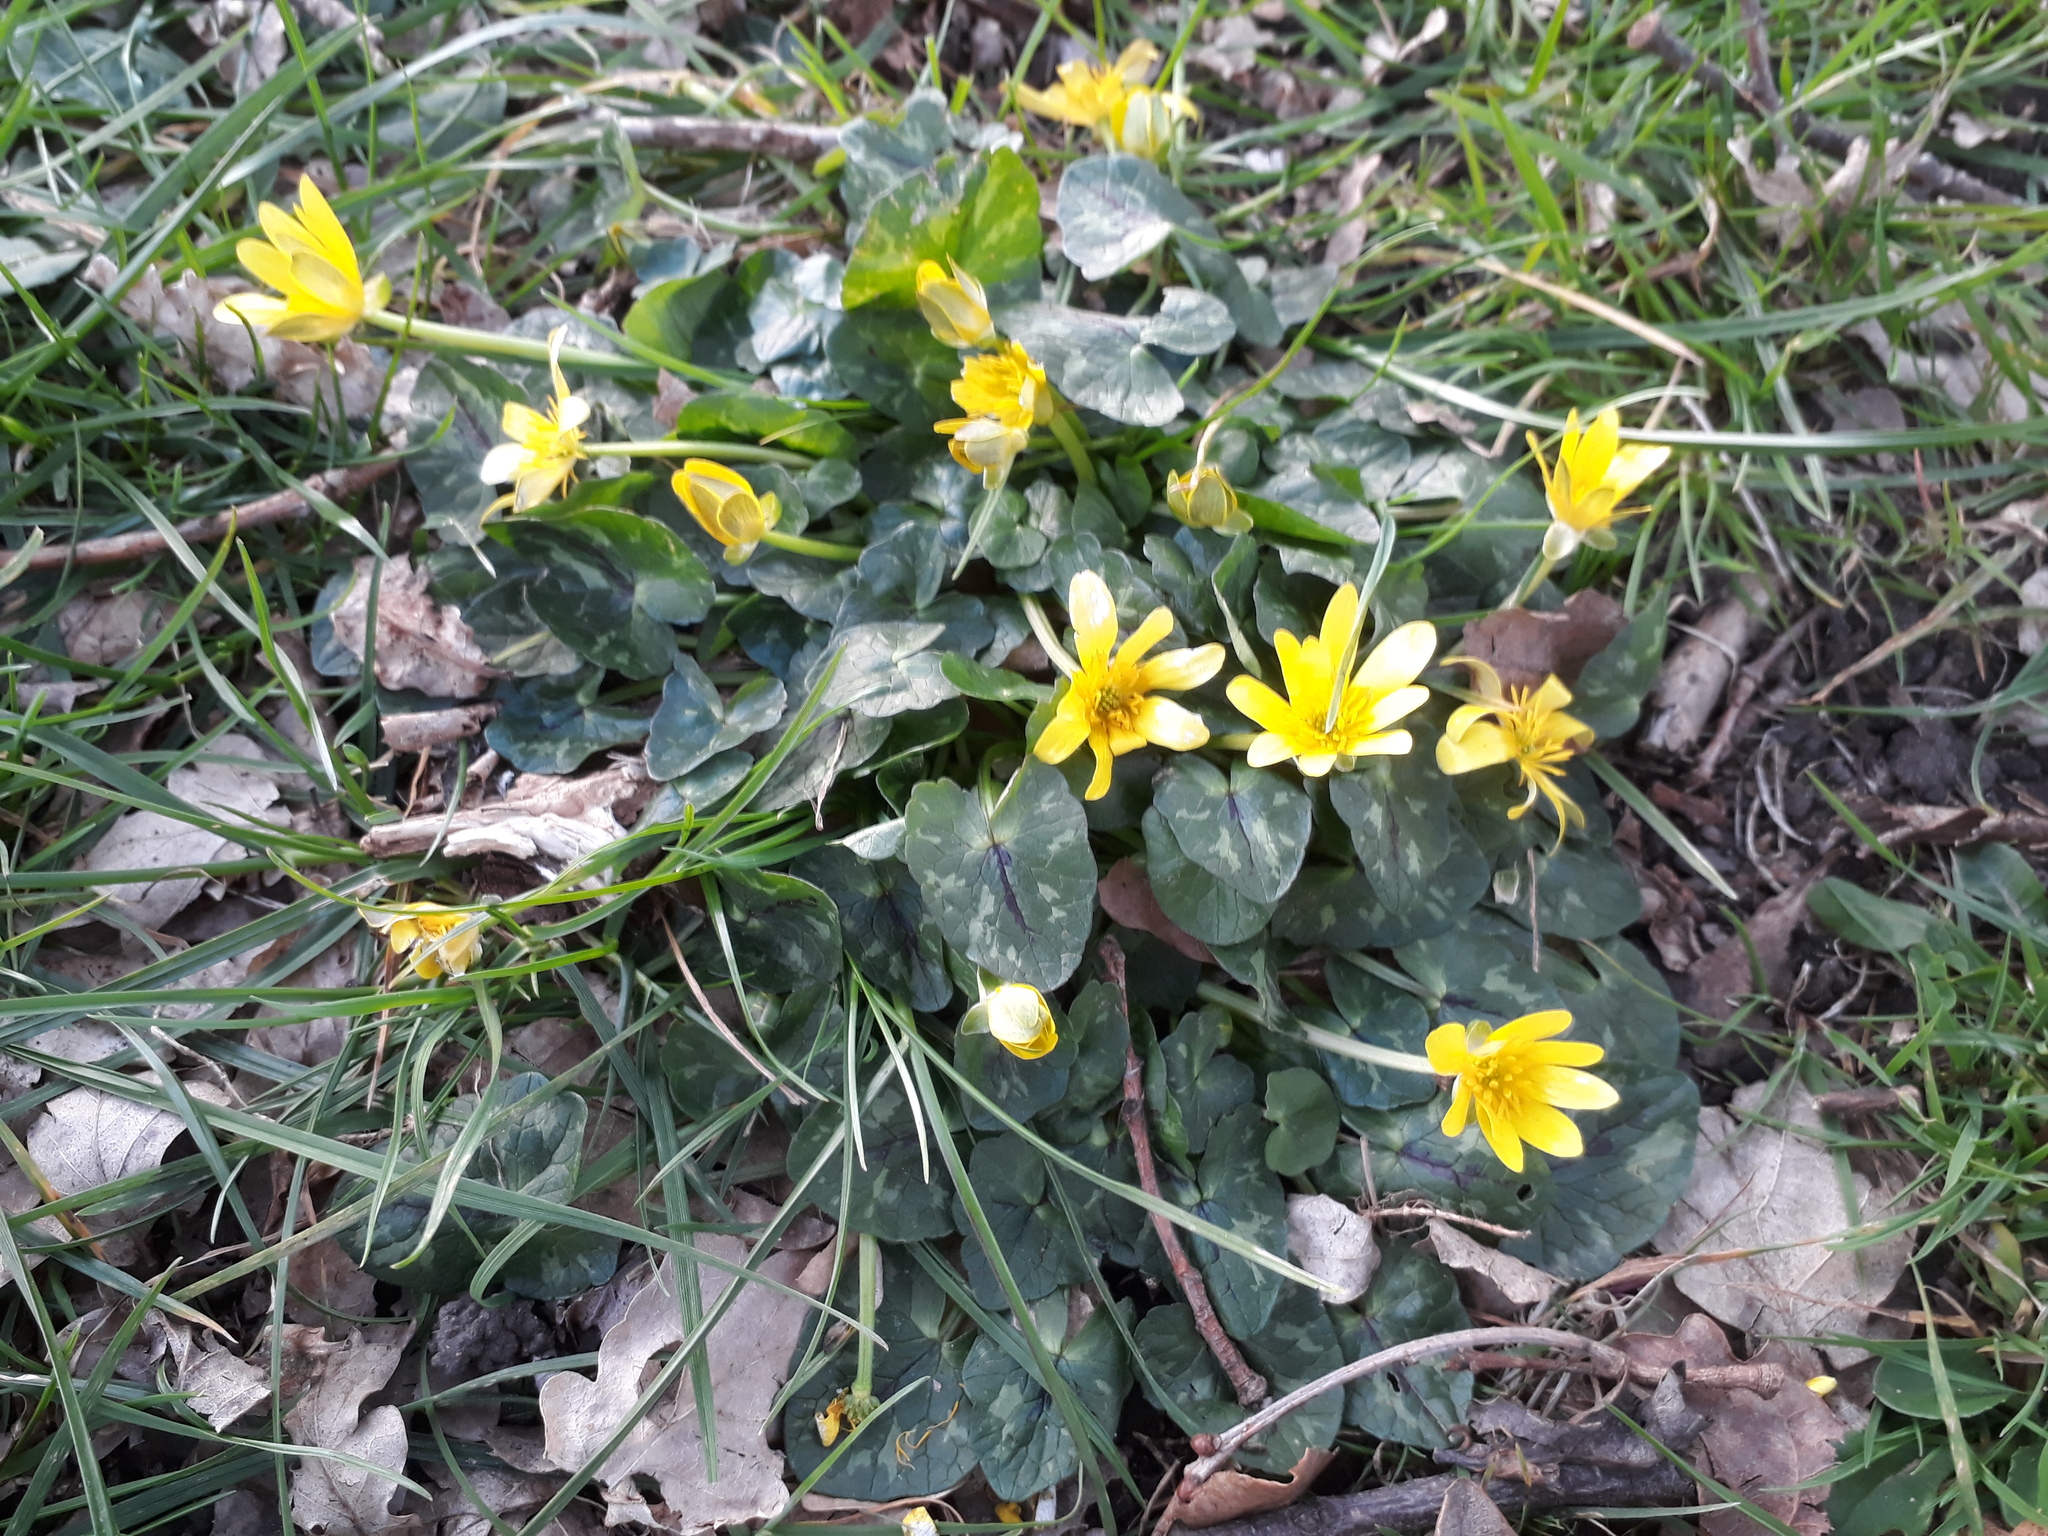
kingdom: Plantae
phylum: Tracheophyta
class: Magnoliopsida
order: Ranunculales
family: Ranunculaceae
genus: Ficaria
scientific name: Ficaria verna
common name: Lesser celandine
